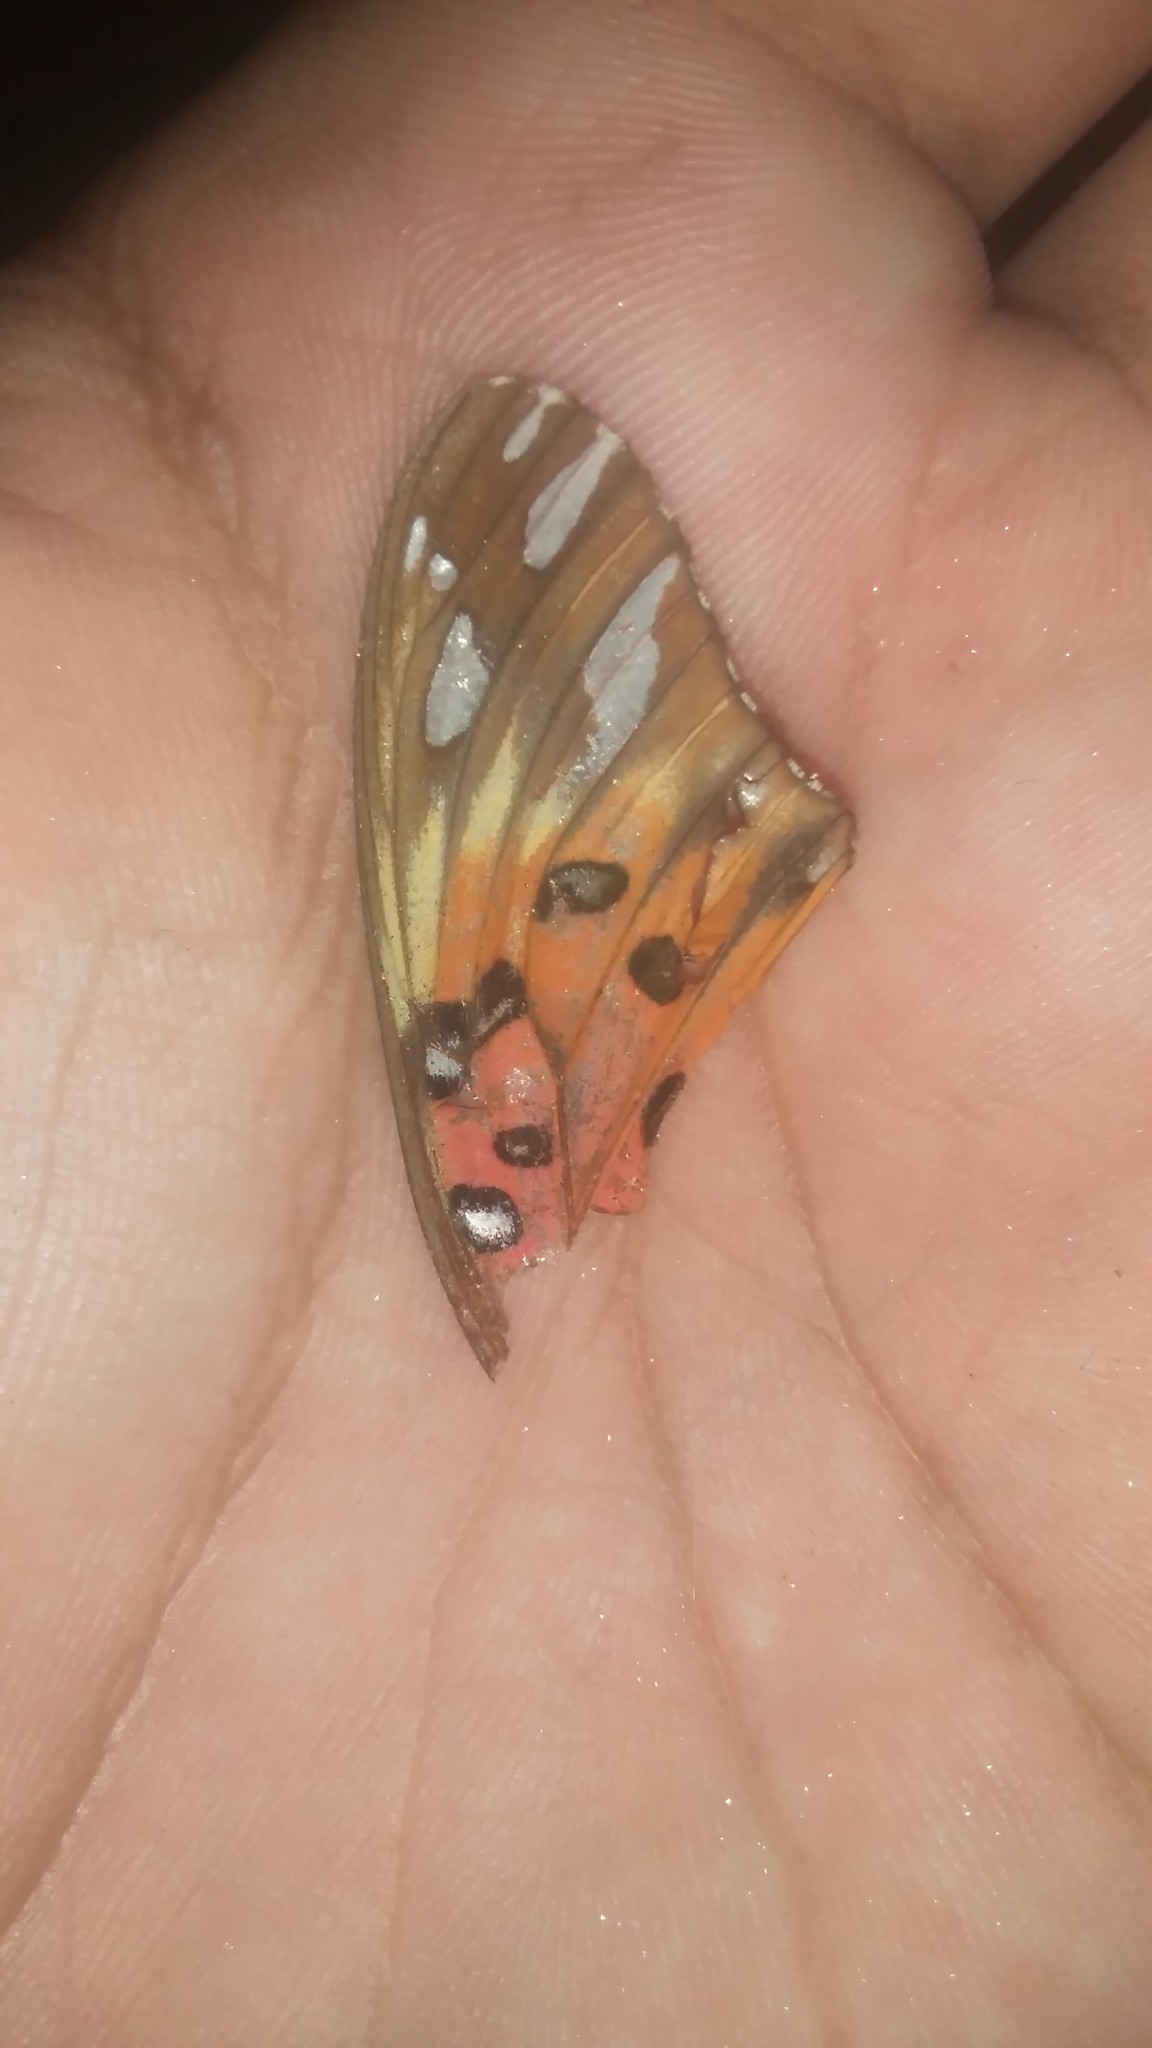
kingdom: Animalia
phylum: Arthropoda
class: Insecta
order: Lepidoptera
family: Nymphalidae
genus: Dione
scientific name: Dione vanillae
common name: Gulf fritillary
